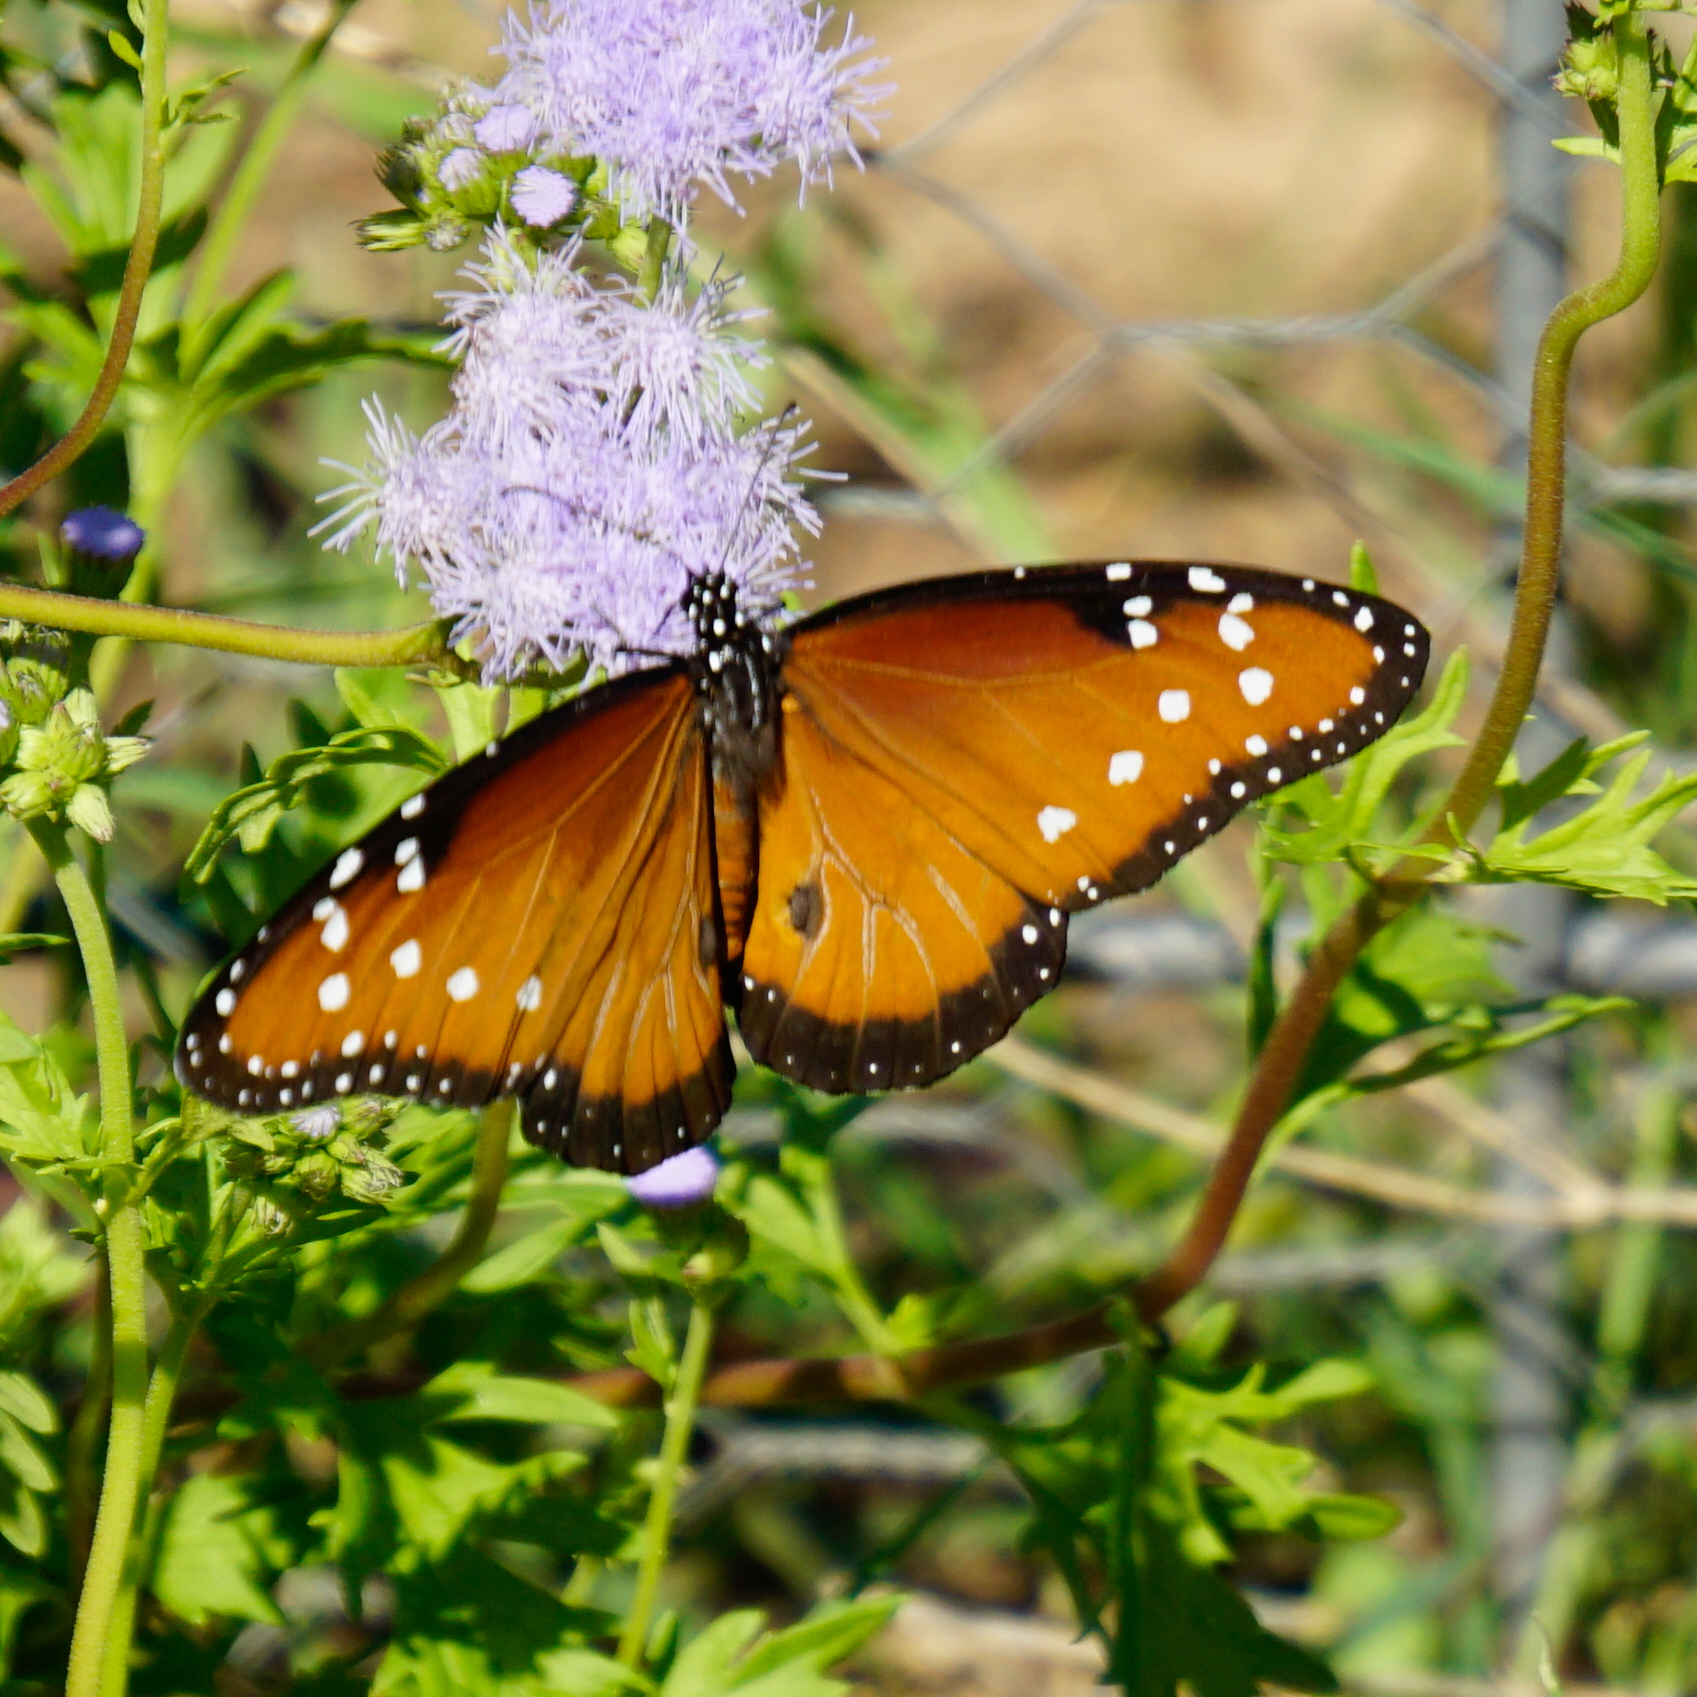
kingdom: Animalia
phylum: Arthropoda
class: Insecta
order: Lepidoptera
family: Nymphalidae
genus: Danaus
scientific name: Danaus gilippus
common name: Queen
